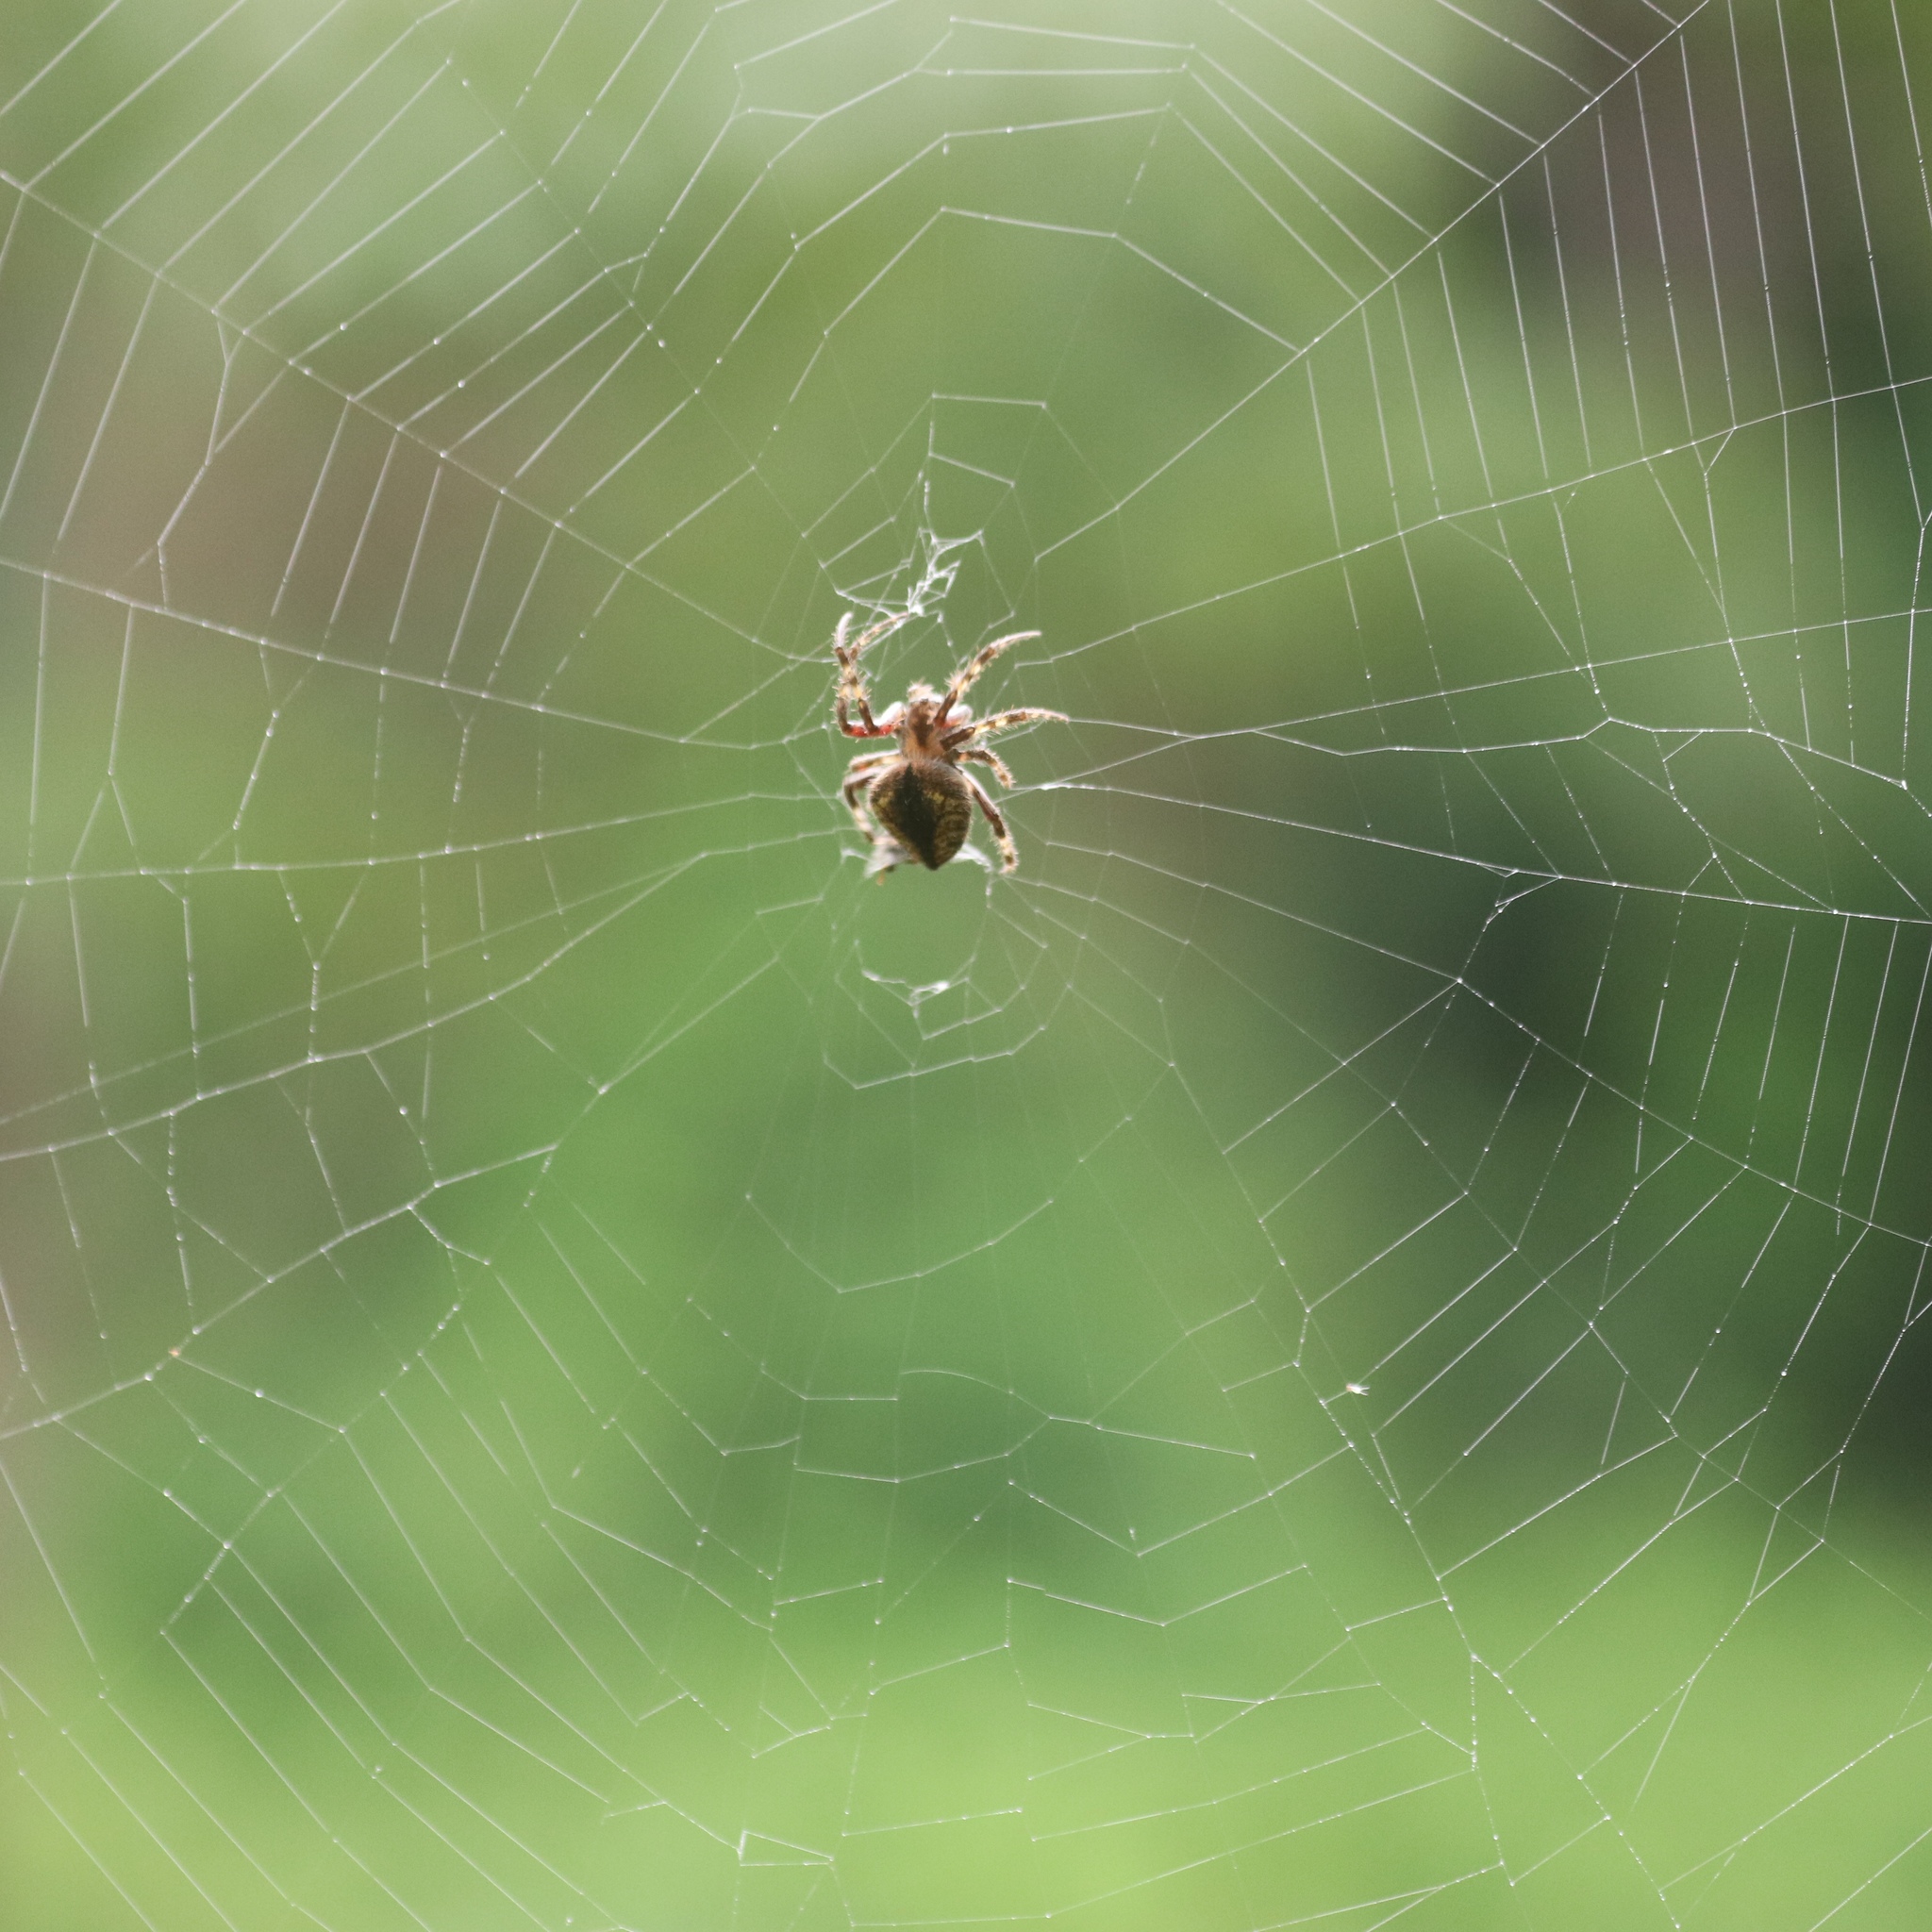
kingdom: Animalia
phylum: Arthropoda
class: Arachnida
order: Araneae
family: Araneidae
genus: Eriophora
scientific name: Eriophora edax
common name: Orb weavers
